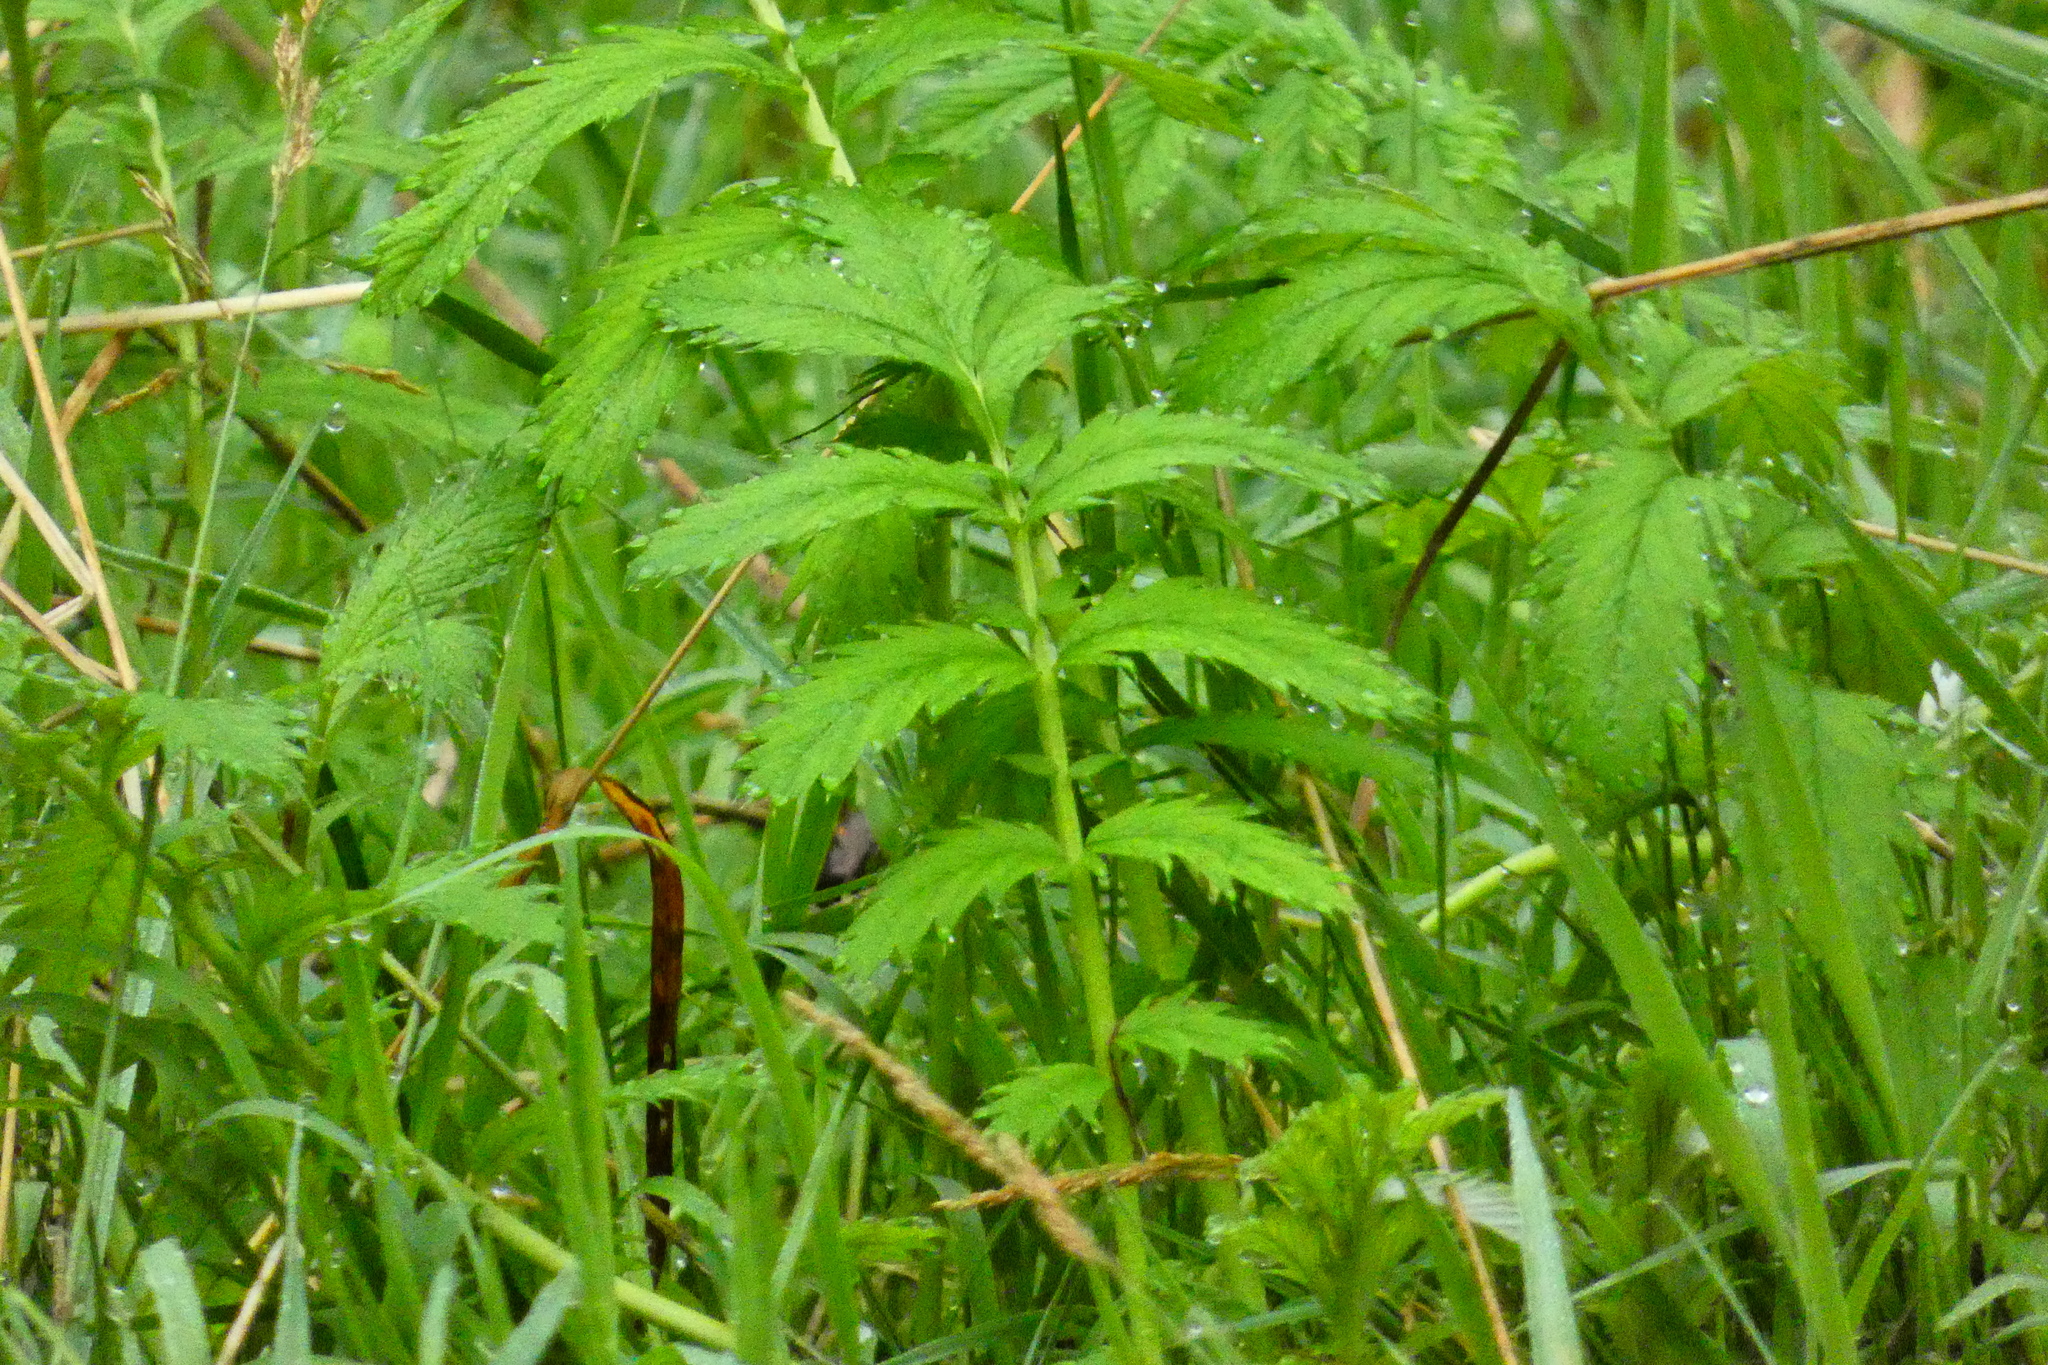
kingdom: Plantae
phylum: Tracheophyta
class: Magnoliopsida
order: Rosales
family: Rosaceae
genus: Argentina
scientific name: Argentina anserina
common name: Common silverweed
